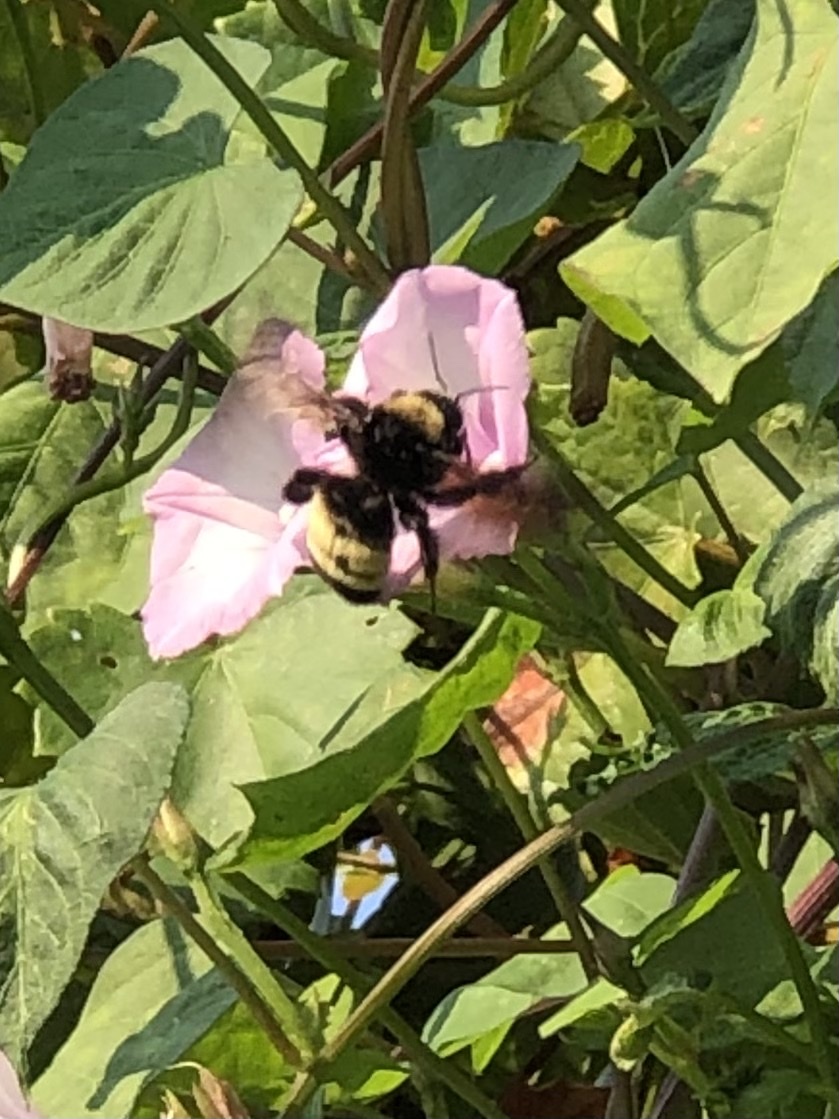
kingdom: Animalia
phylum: Arthropoda
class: Insecta
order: Hymenoptera
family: Apidae
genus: Bombus
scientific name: Bombus pensylvanicus
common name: Bumble bee
